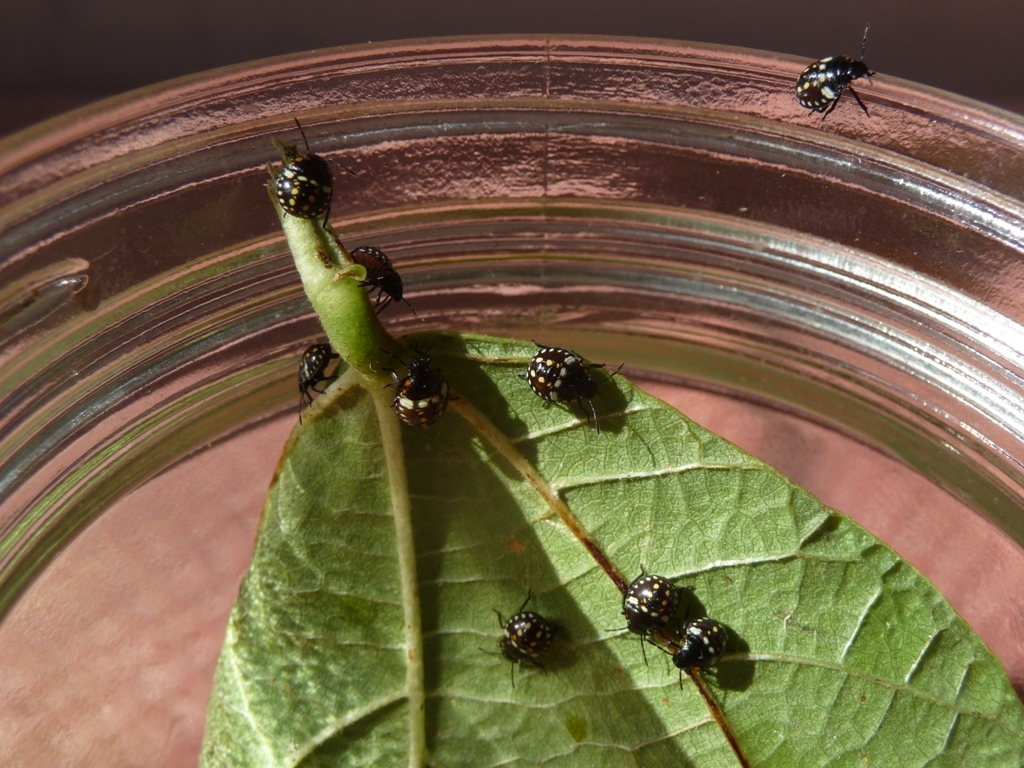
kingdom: Animalia
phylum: Arthropoda
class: Insecta
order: Hemiptera
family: Pentatomidae
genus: Nezara
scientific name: Nezara viridula
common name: Southern green stink bug
